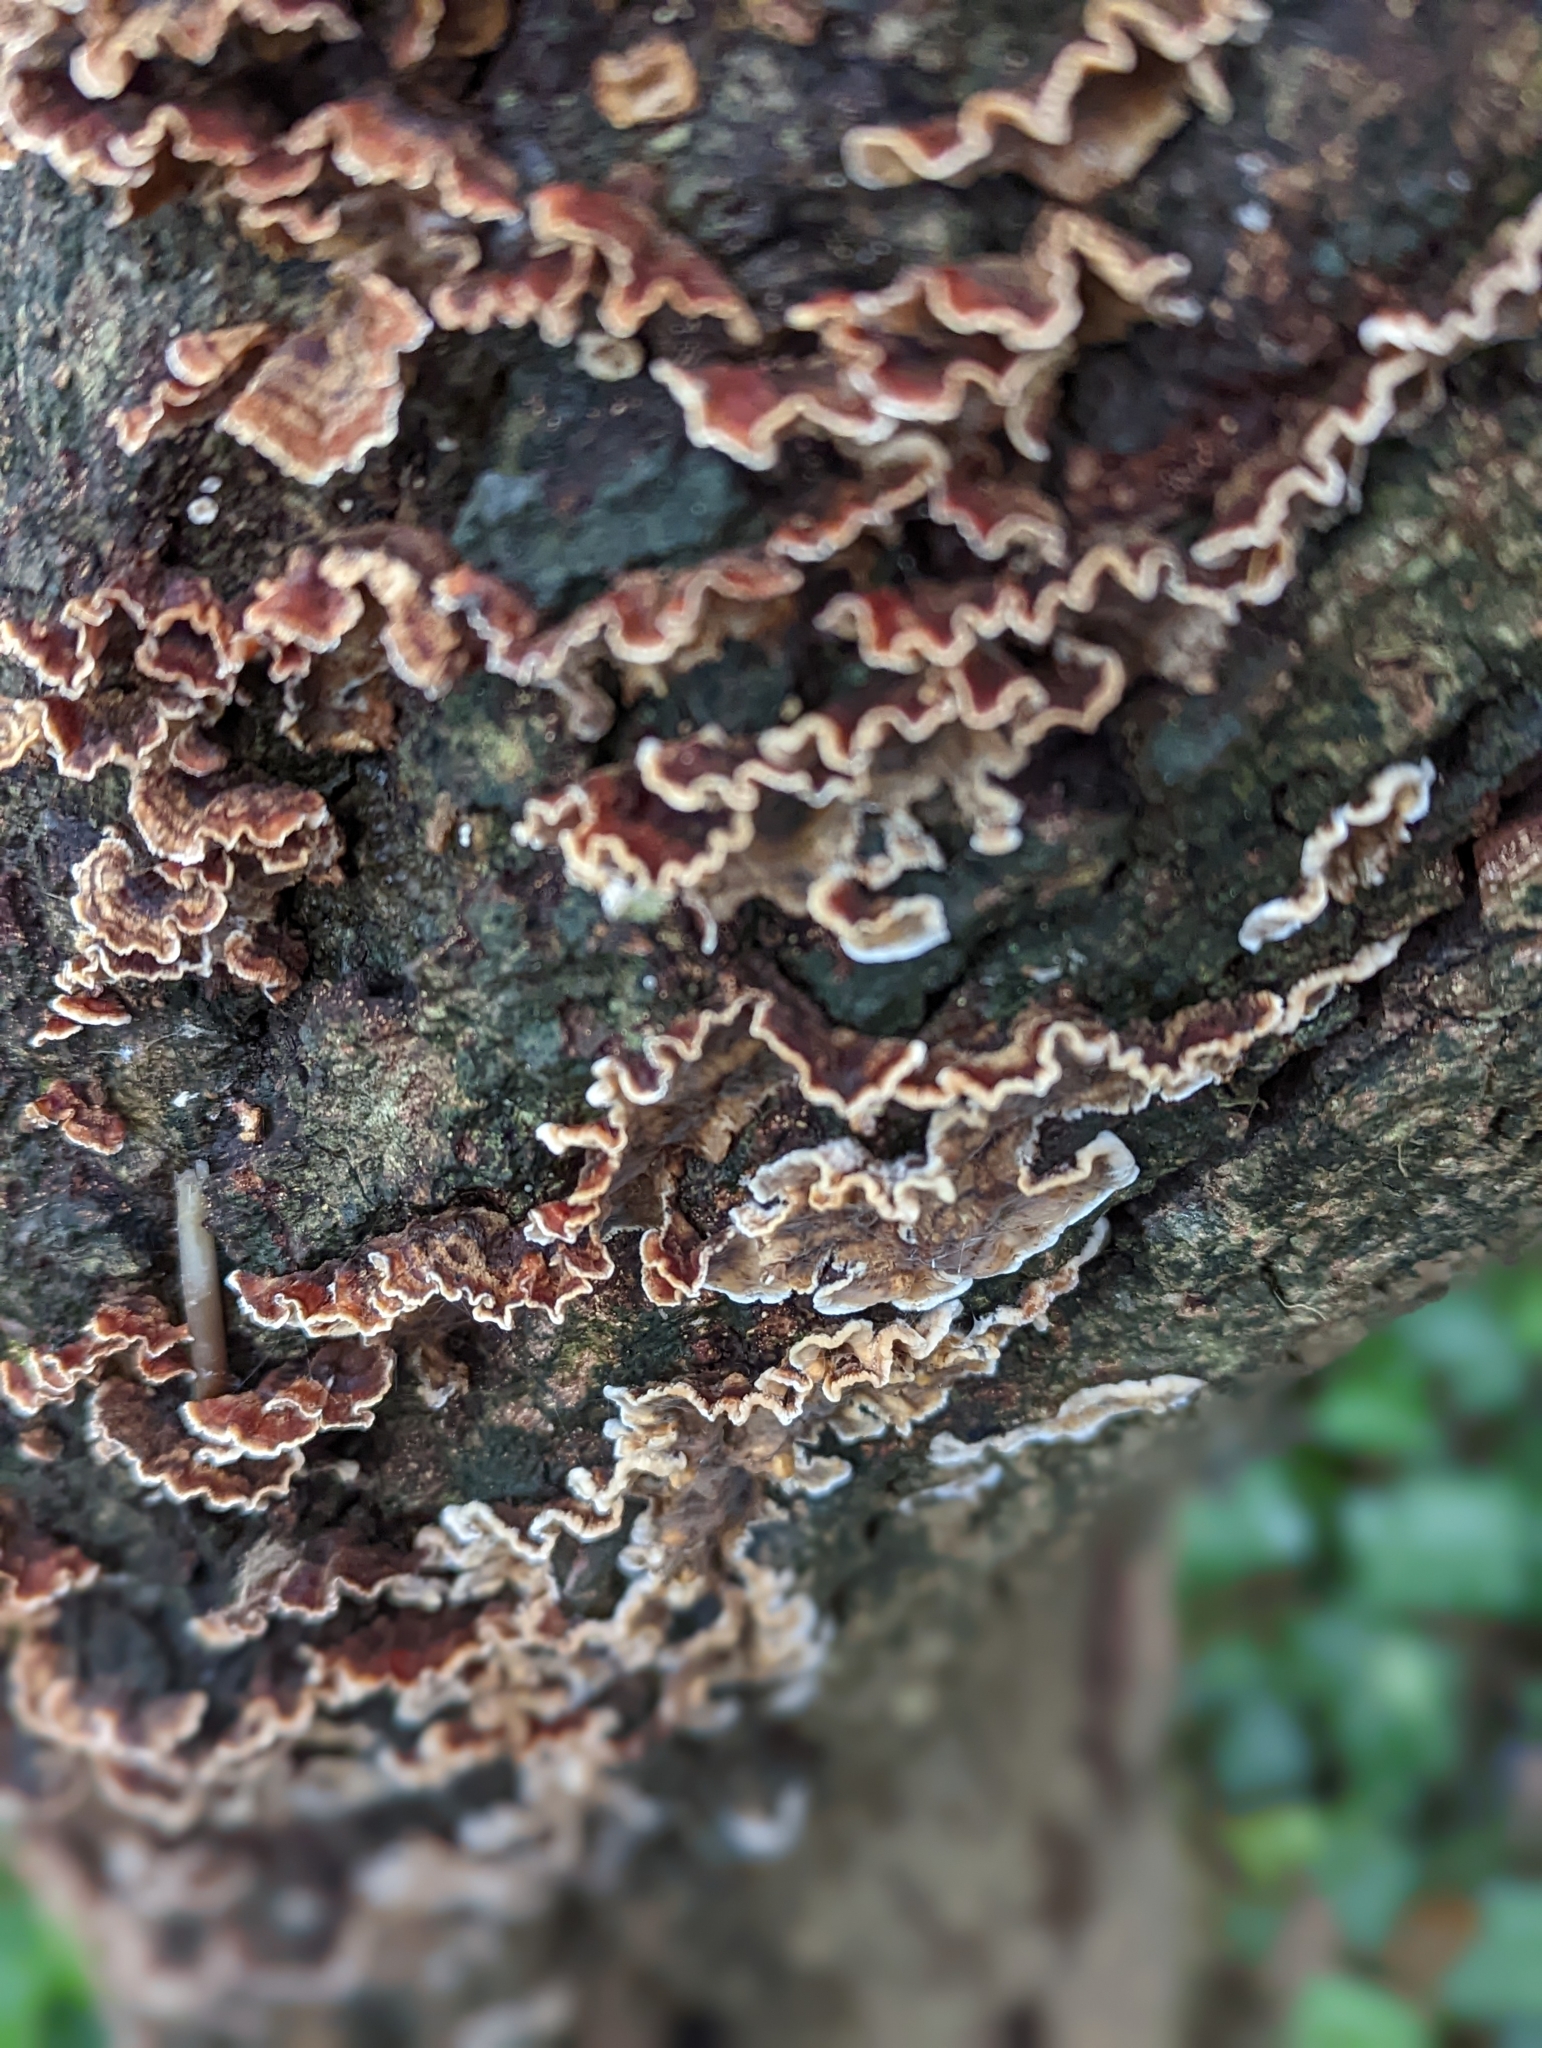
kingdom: Fungi
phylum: Basidiomycota
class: Agaricomycetes
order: Russulales
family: Stereaceae
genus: Stereum
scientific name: Stereum gausapatum
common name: Bleeding oak crust
